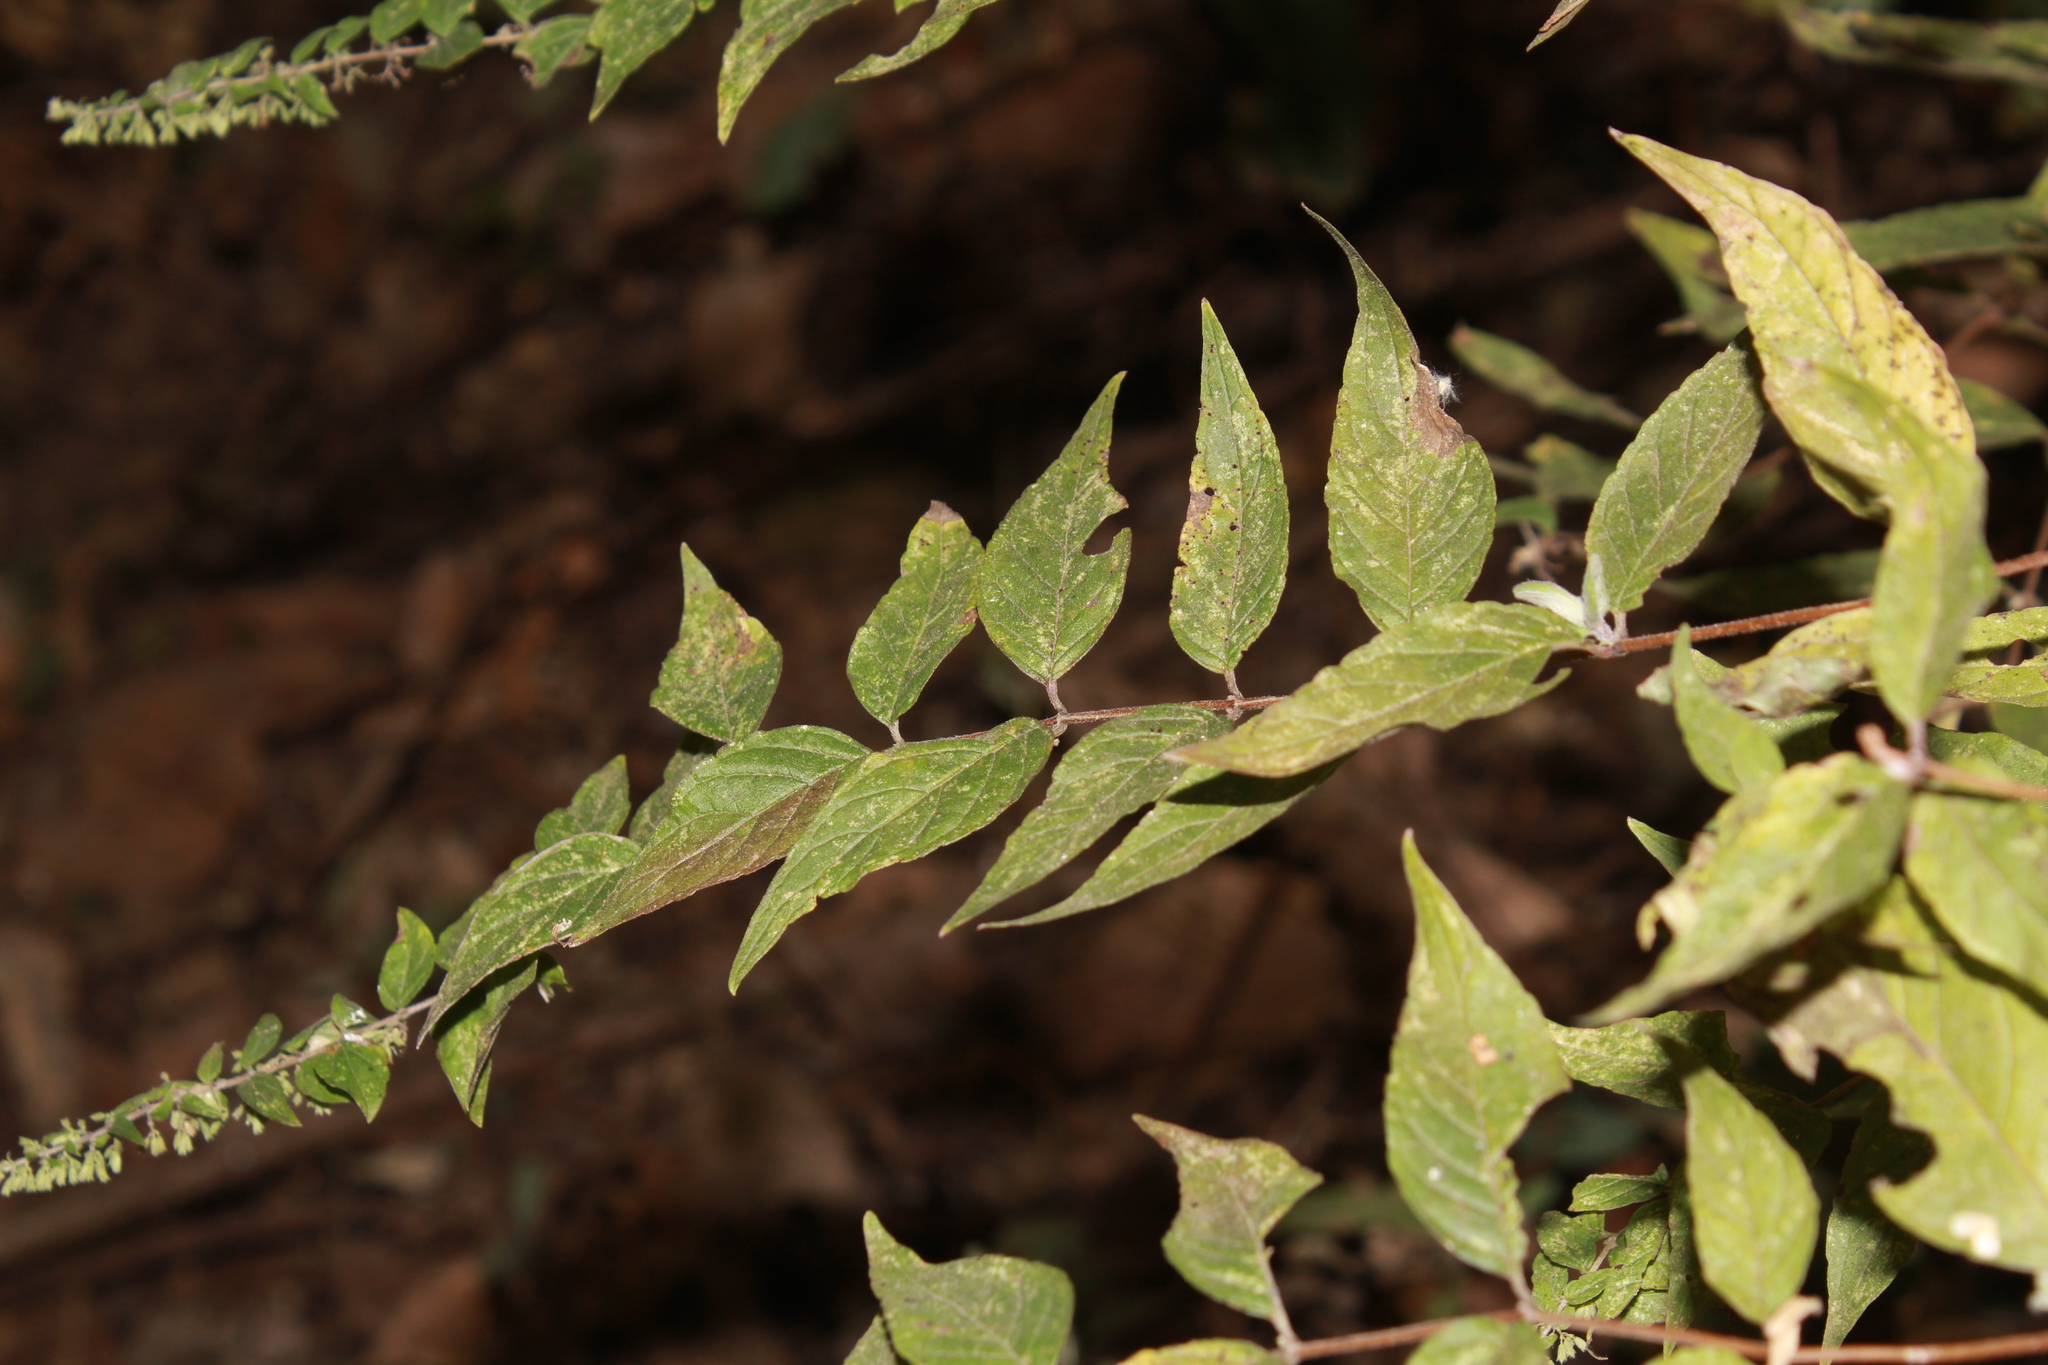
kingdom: Plantae
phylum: Tracheophyta
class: Magnoliopsida
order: Lamiales
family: Lamiaceae
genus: Cunila
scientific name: Cunila polyantha
